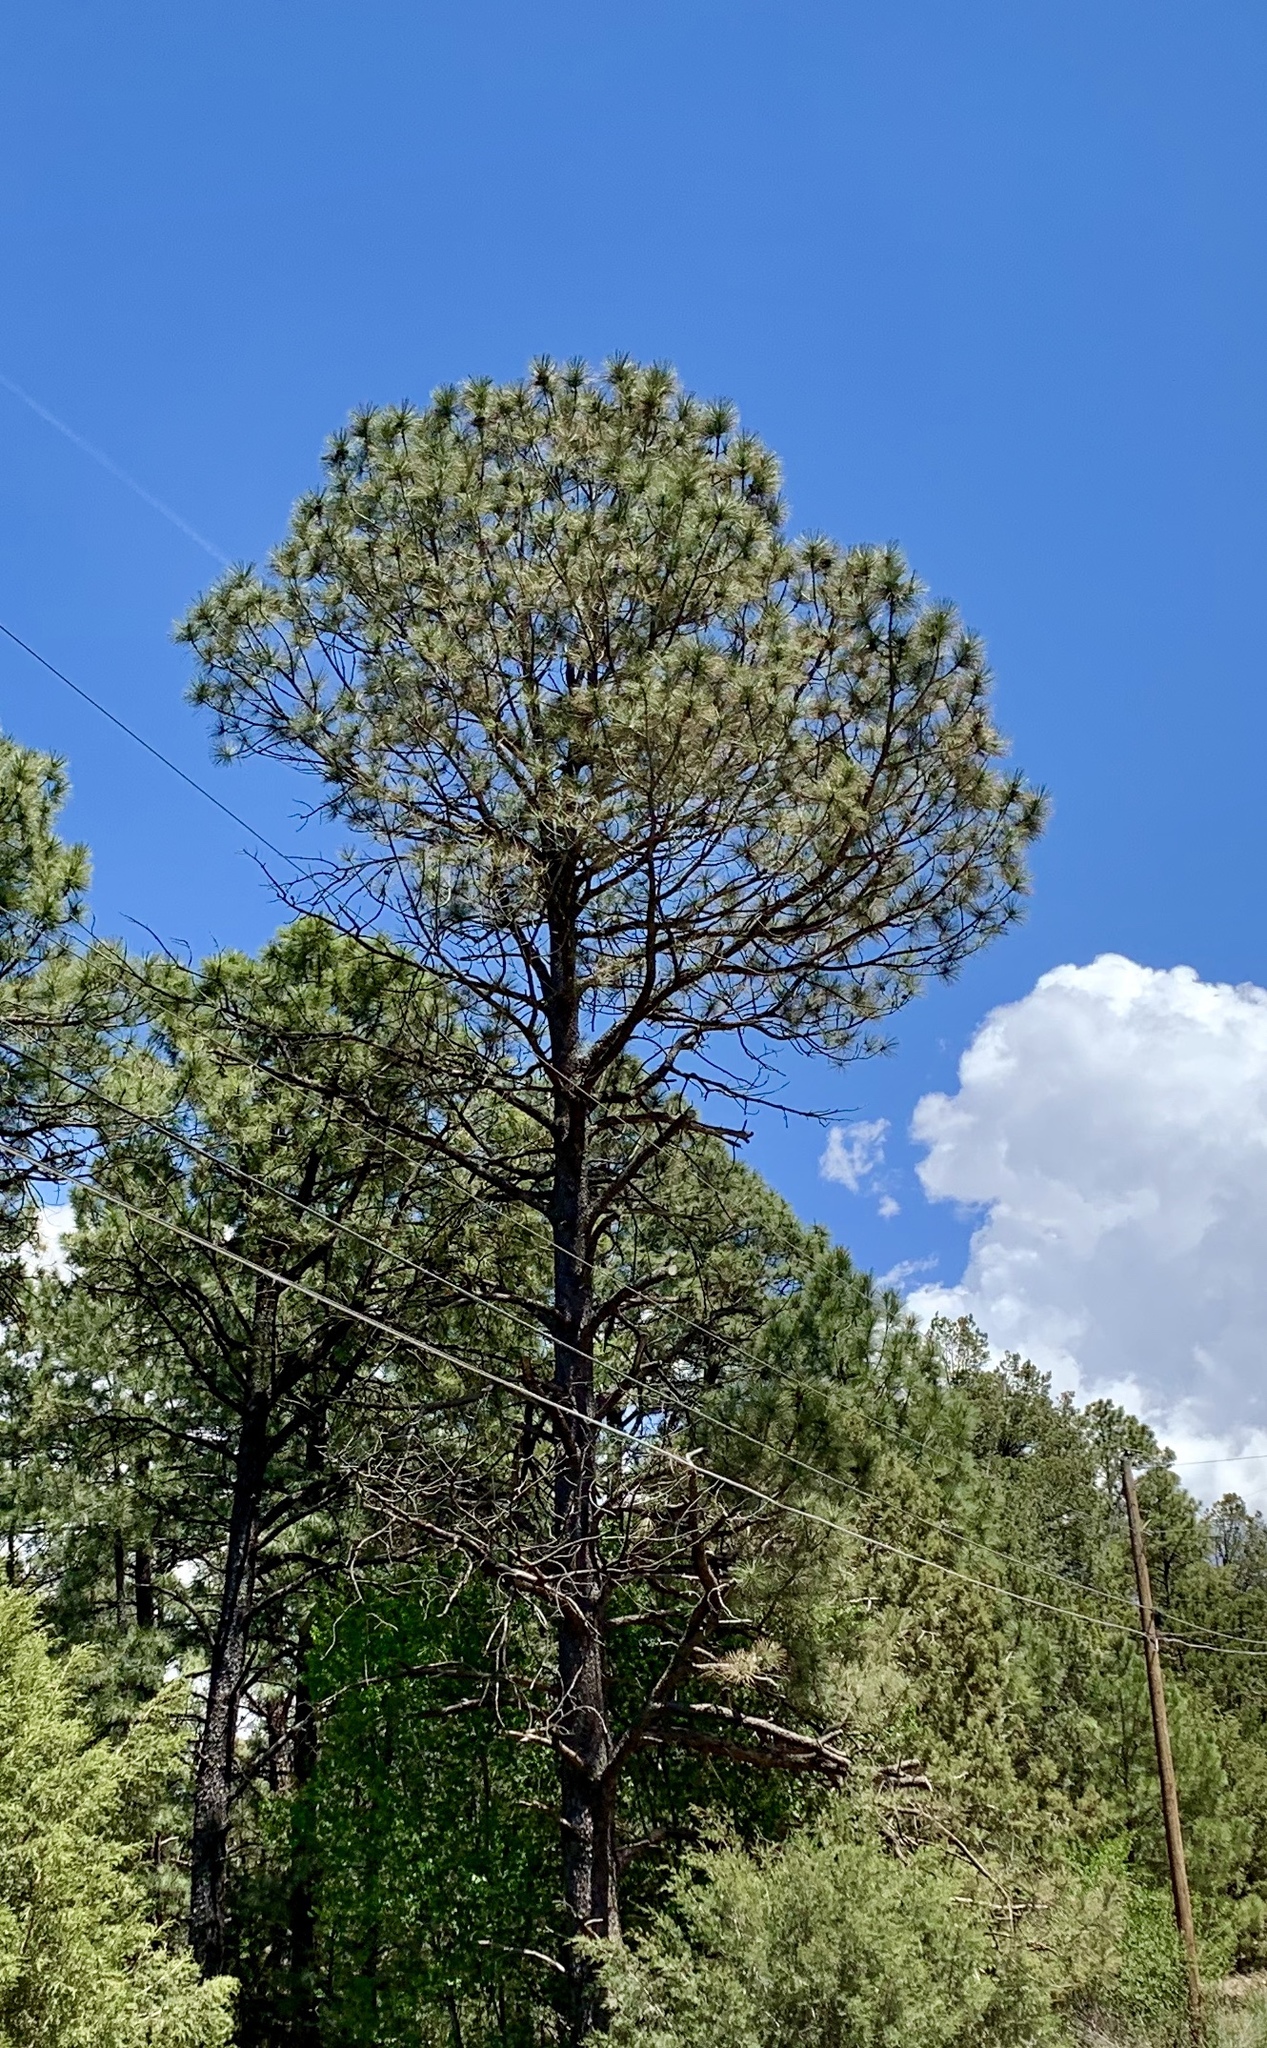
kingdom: Plantae
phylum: Tracheophyta
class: Pinopsida
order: Pinales
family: Pinaceae
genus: Pinus
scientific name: Pinus ponderosa
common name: Western yellow-pine
